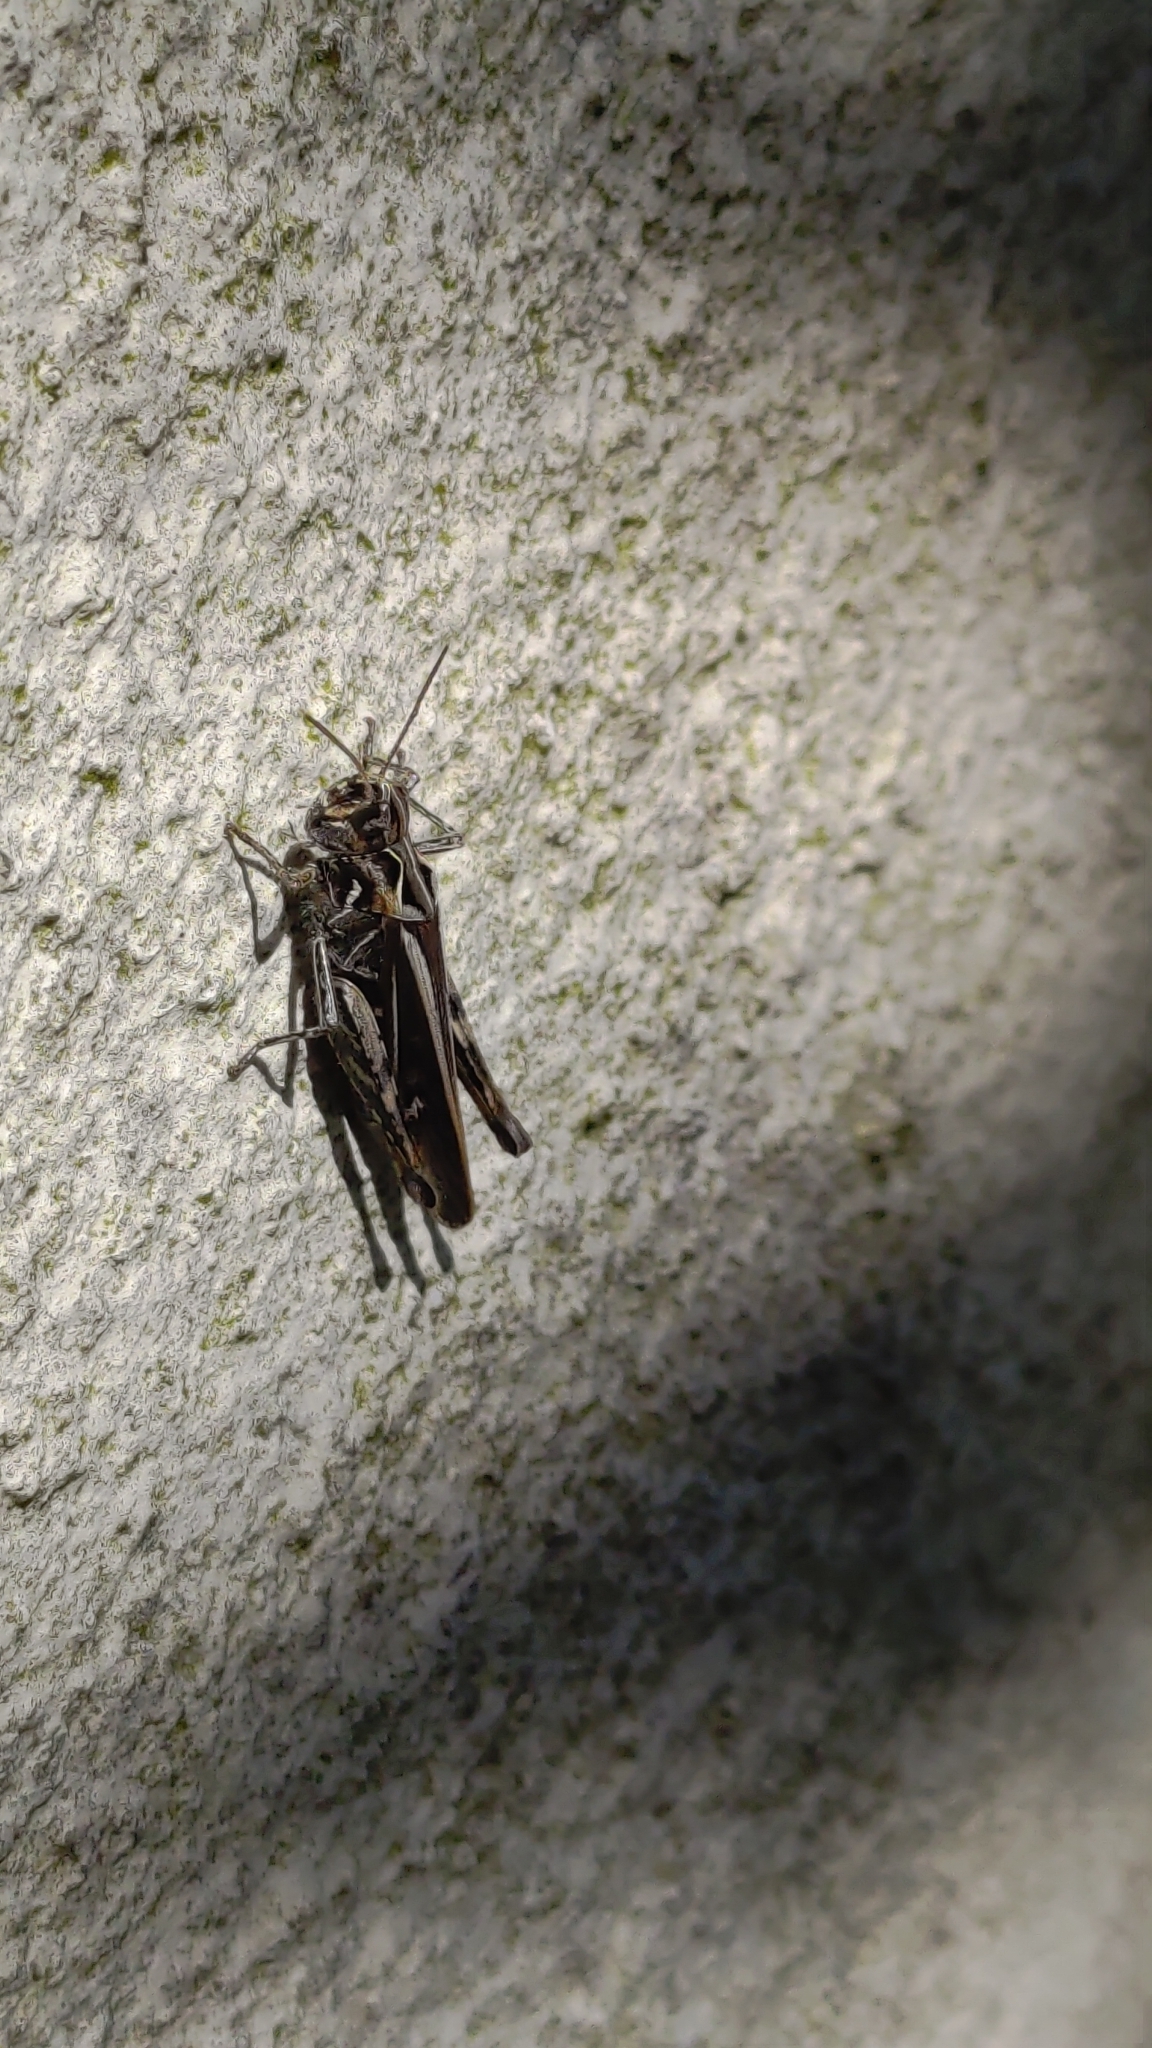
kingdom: Animalia
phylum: Arthropoda
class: Insecta
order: Orthoptera
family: Acrididae
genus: Chorthippus
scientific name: Chorthippus brunneus
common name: Field grasshopper
